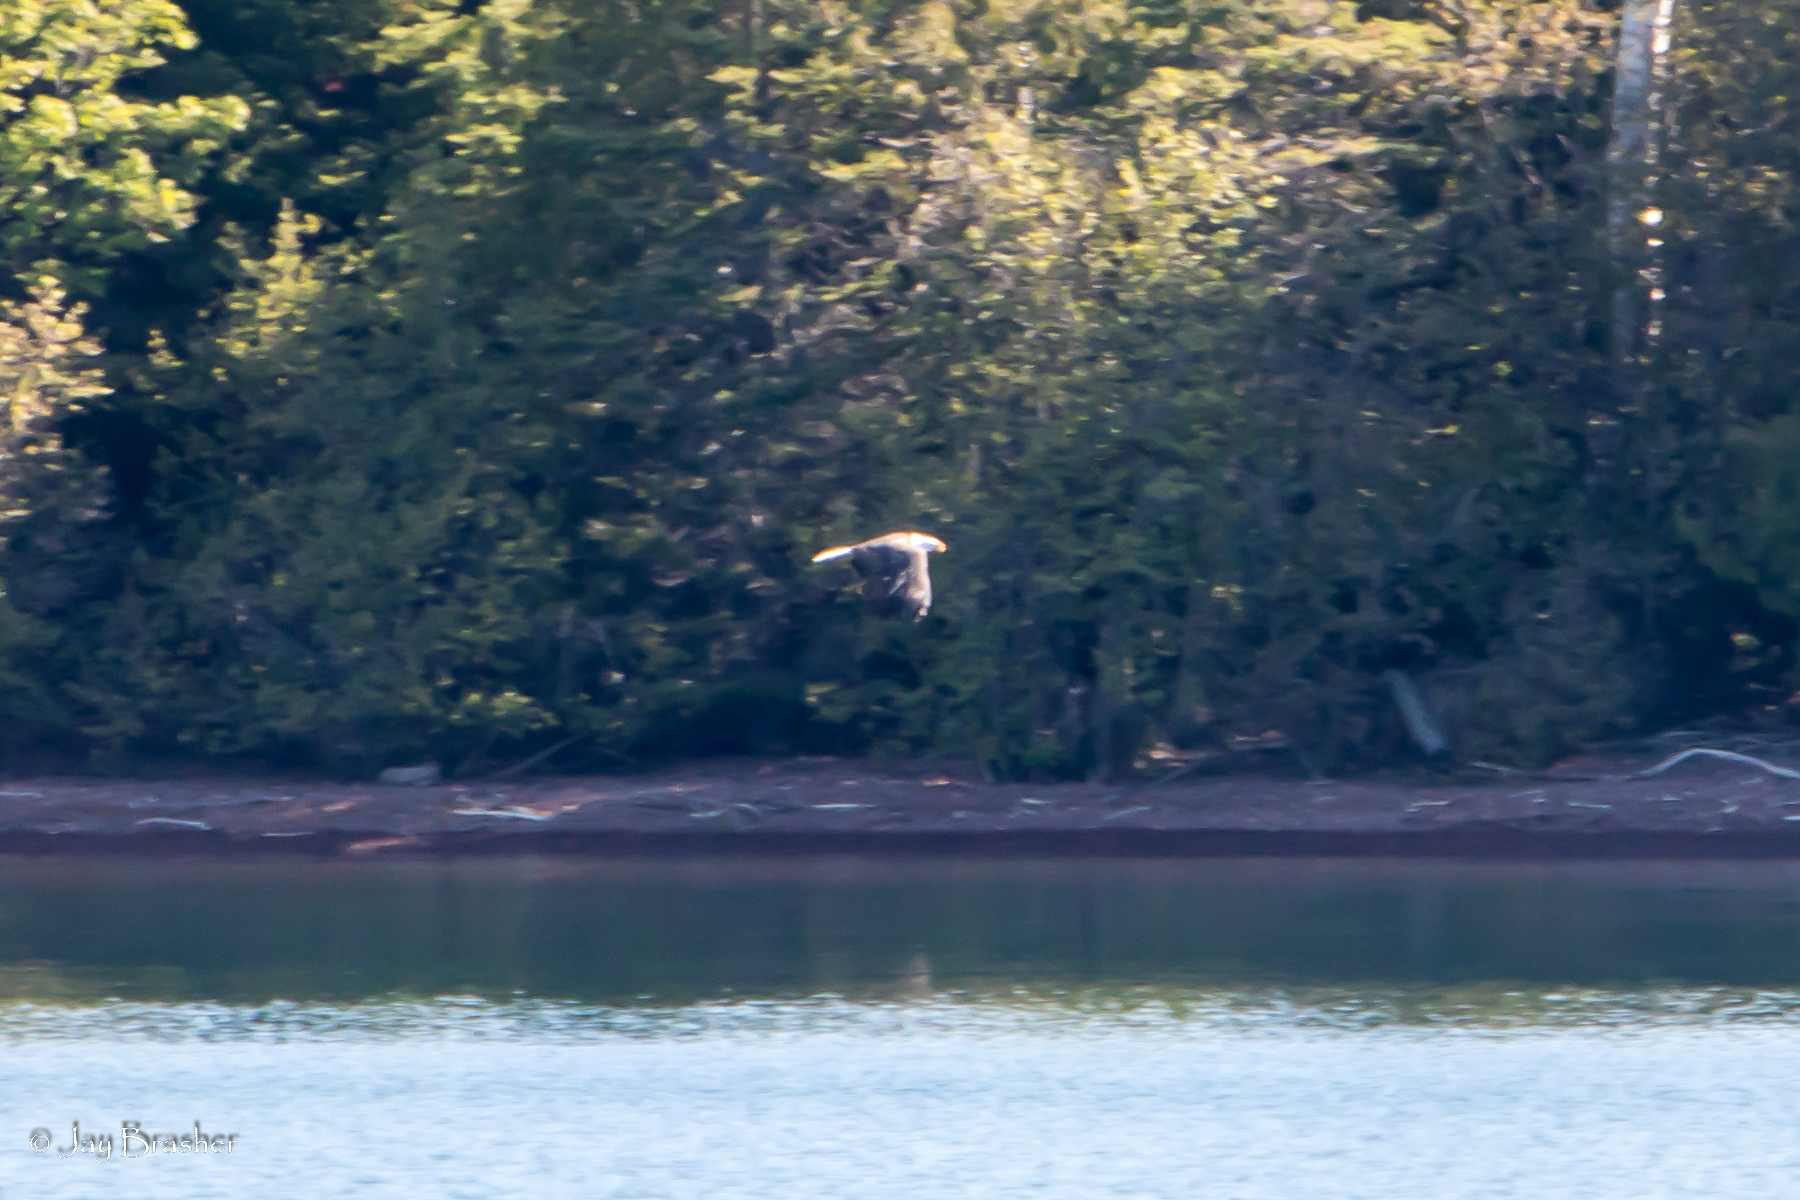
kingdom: Animalia
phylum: Chordata
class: Aves
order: Accipitriformes
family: Accipitridae
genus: Haliaeetus
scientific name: Haliaeetus leucocephalus
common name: Bald eagle
